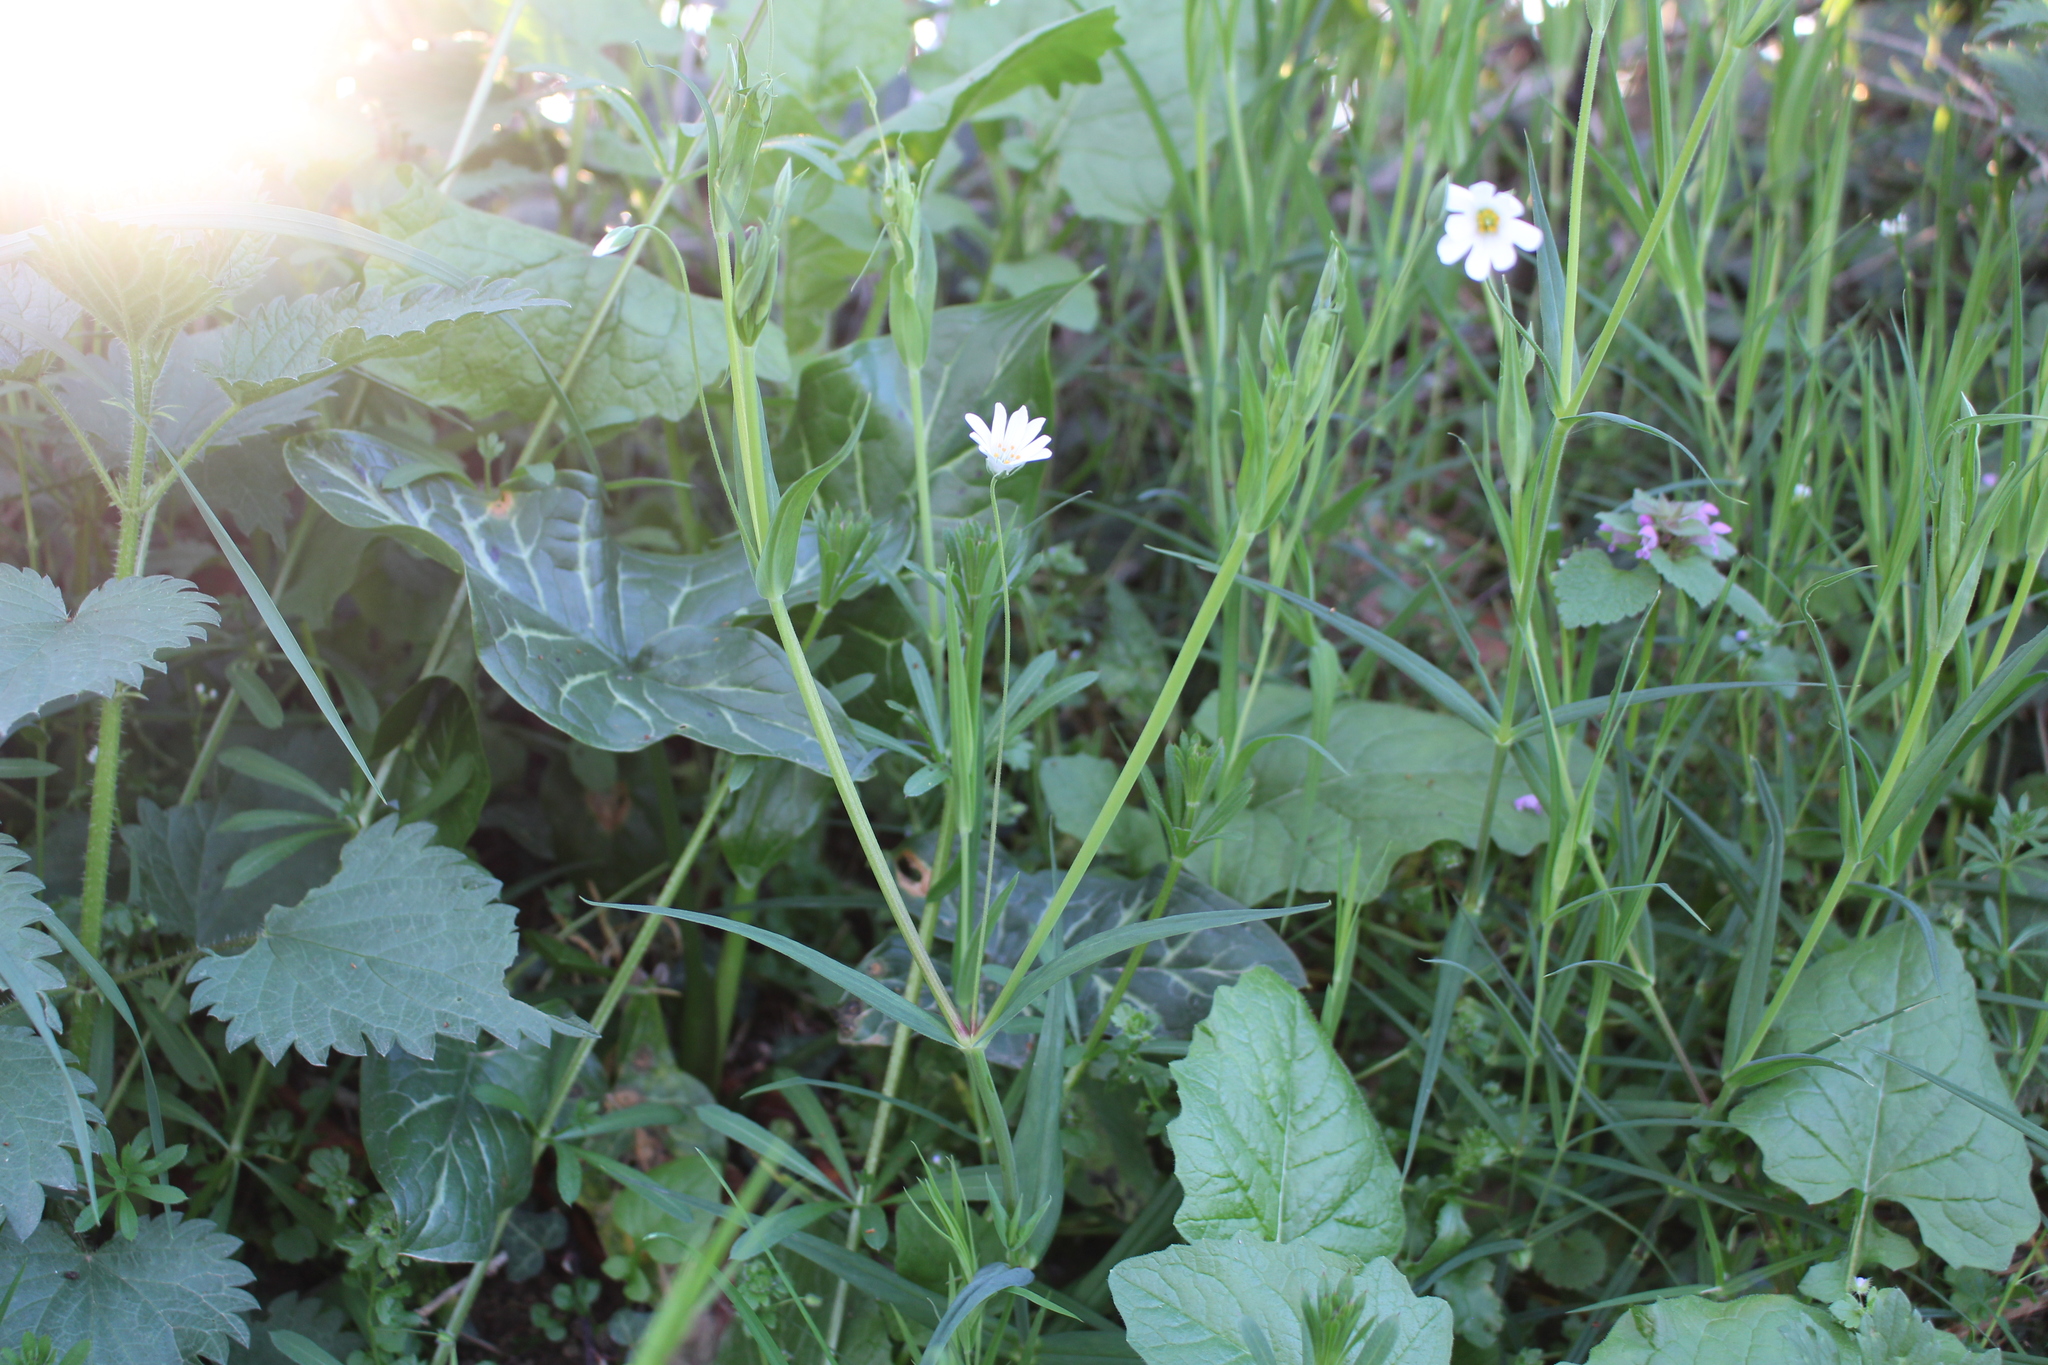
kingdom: Plantae
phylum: Tracheophyta
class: Magnoliopsida
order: Caryophyllales
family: Caryophyllaceae
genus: Rabelera
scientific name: Rabelera holostea
